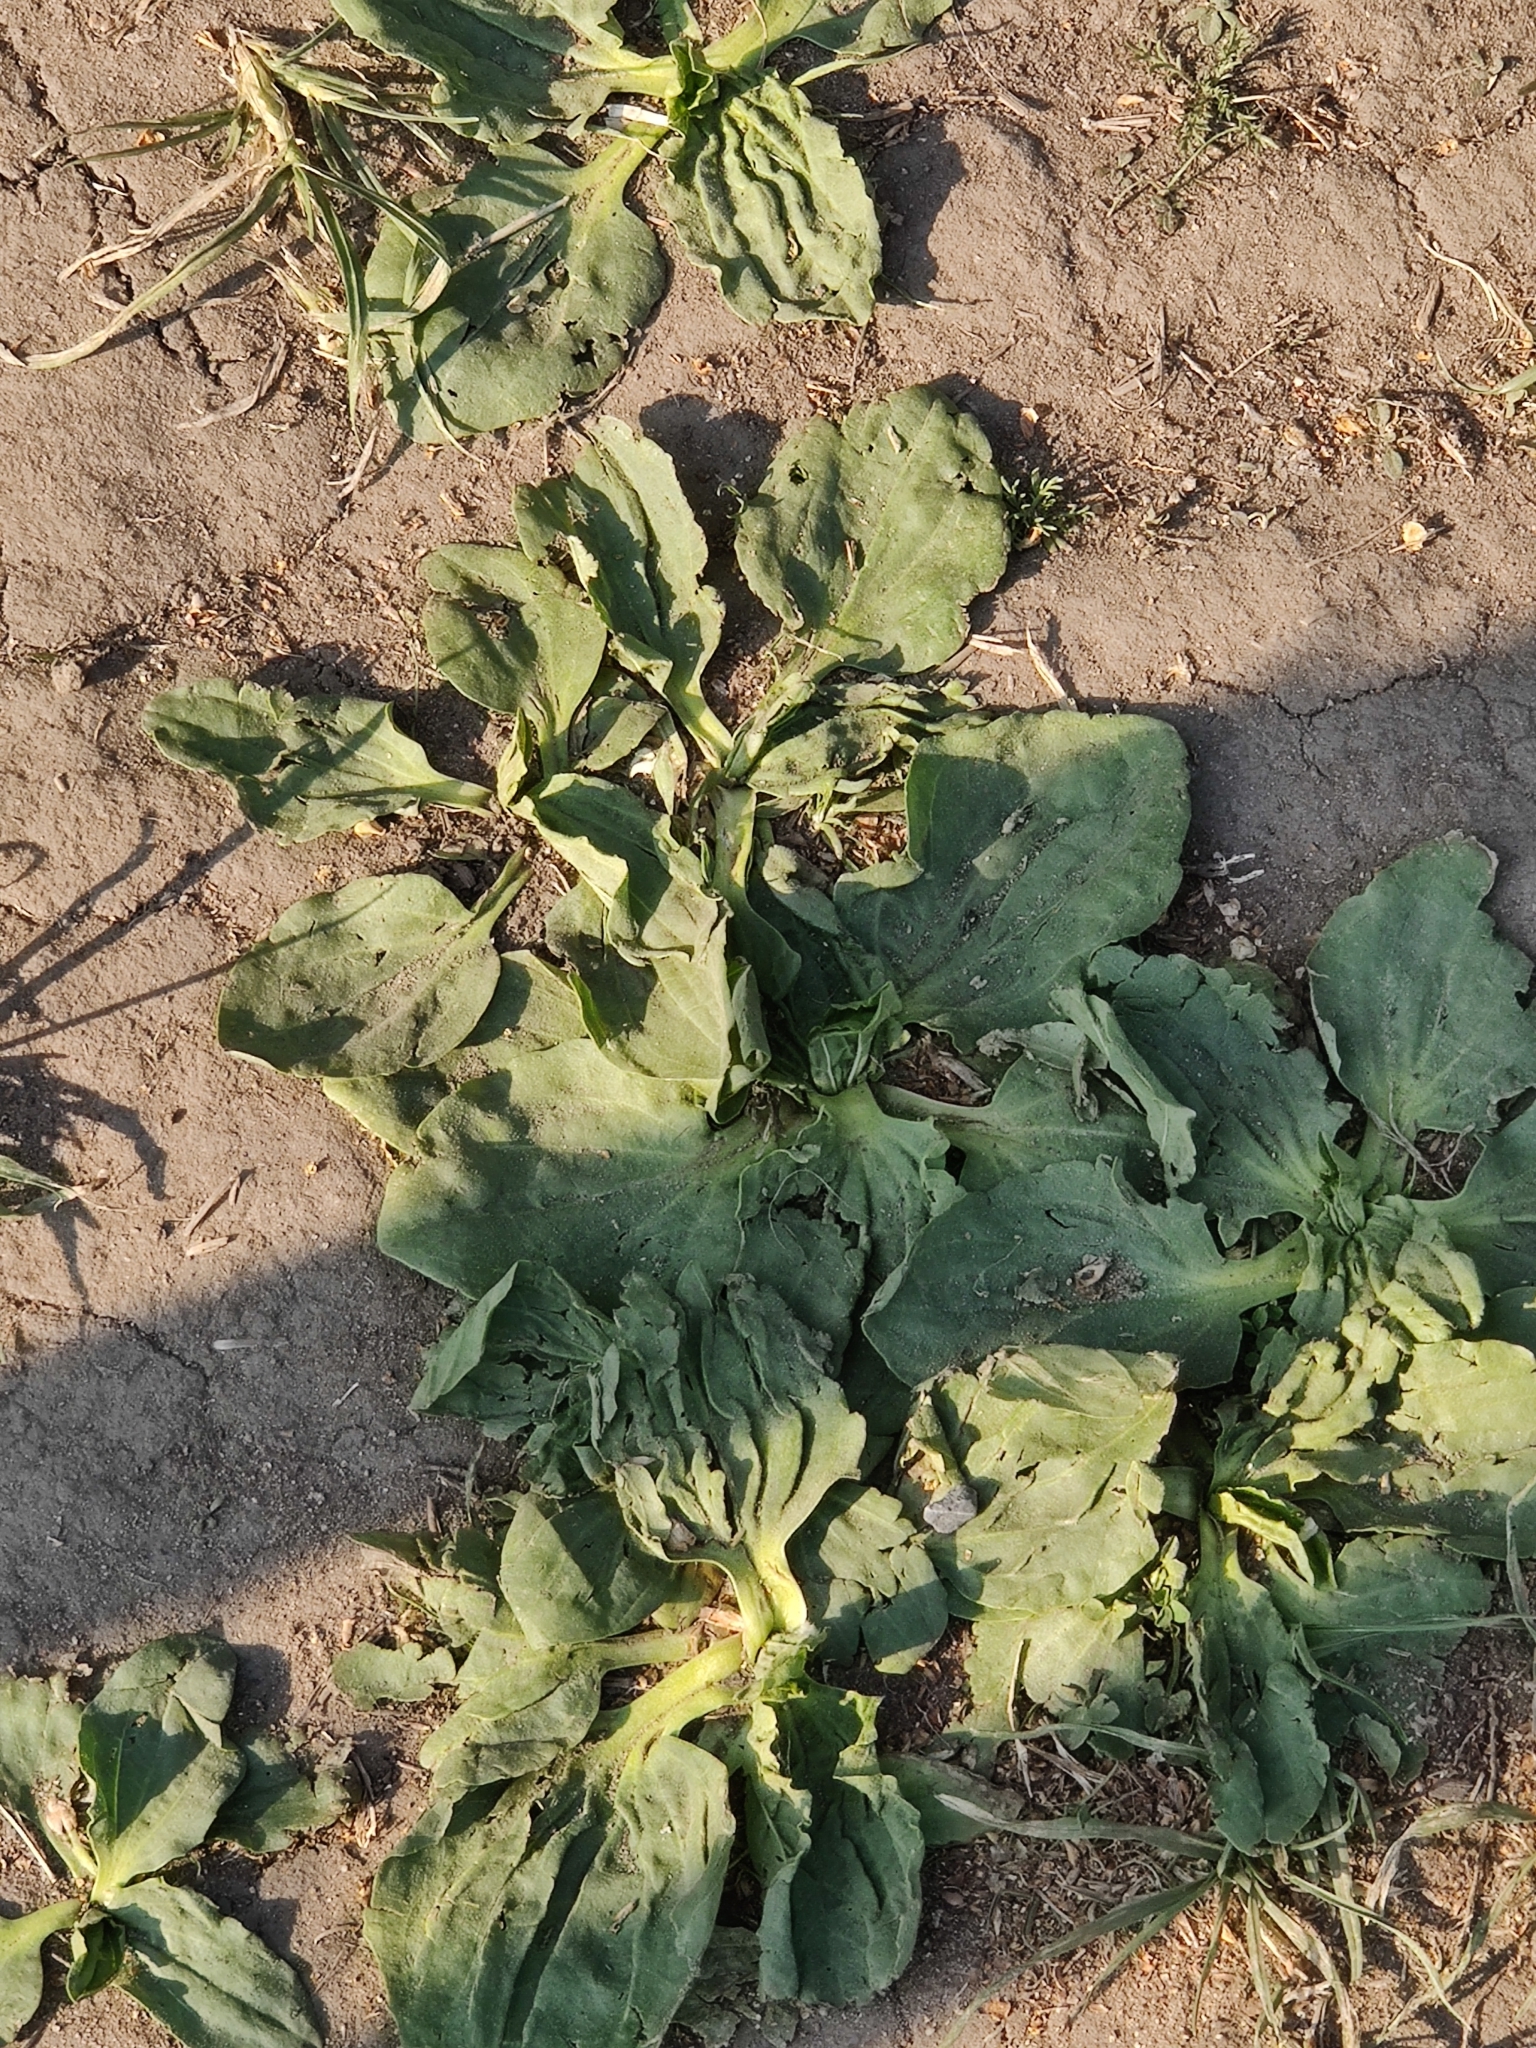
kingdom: Plantae
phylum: Tracheophyta
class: Magnoliopsida
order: Lamiales
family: Plantaginaceae
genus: Plantago
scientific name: Plantago major
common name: Common plantain
